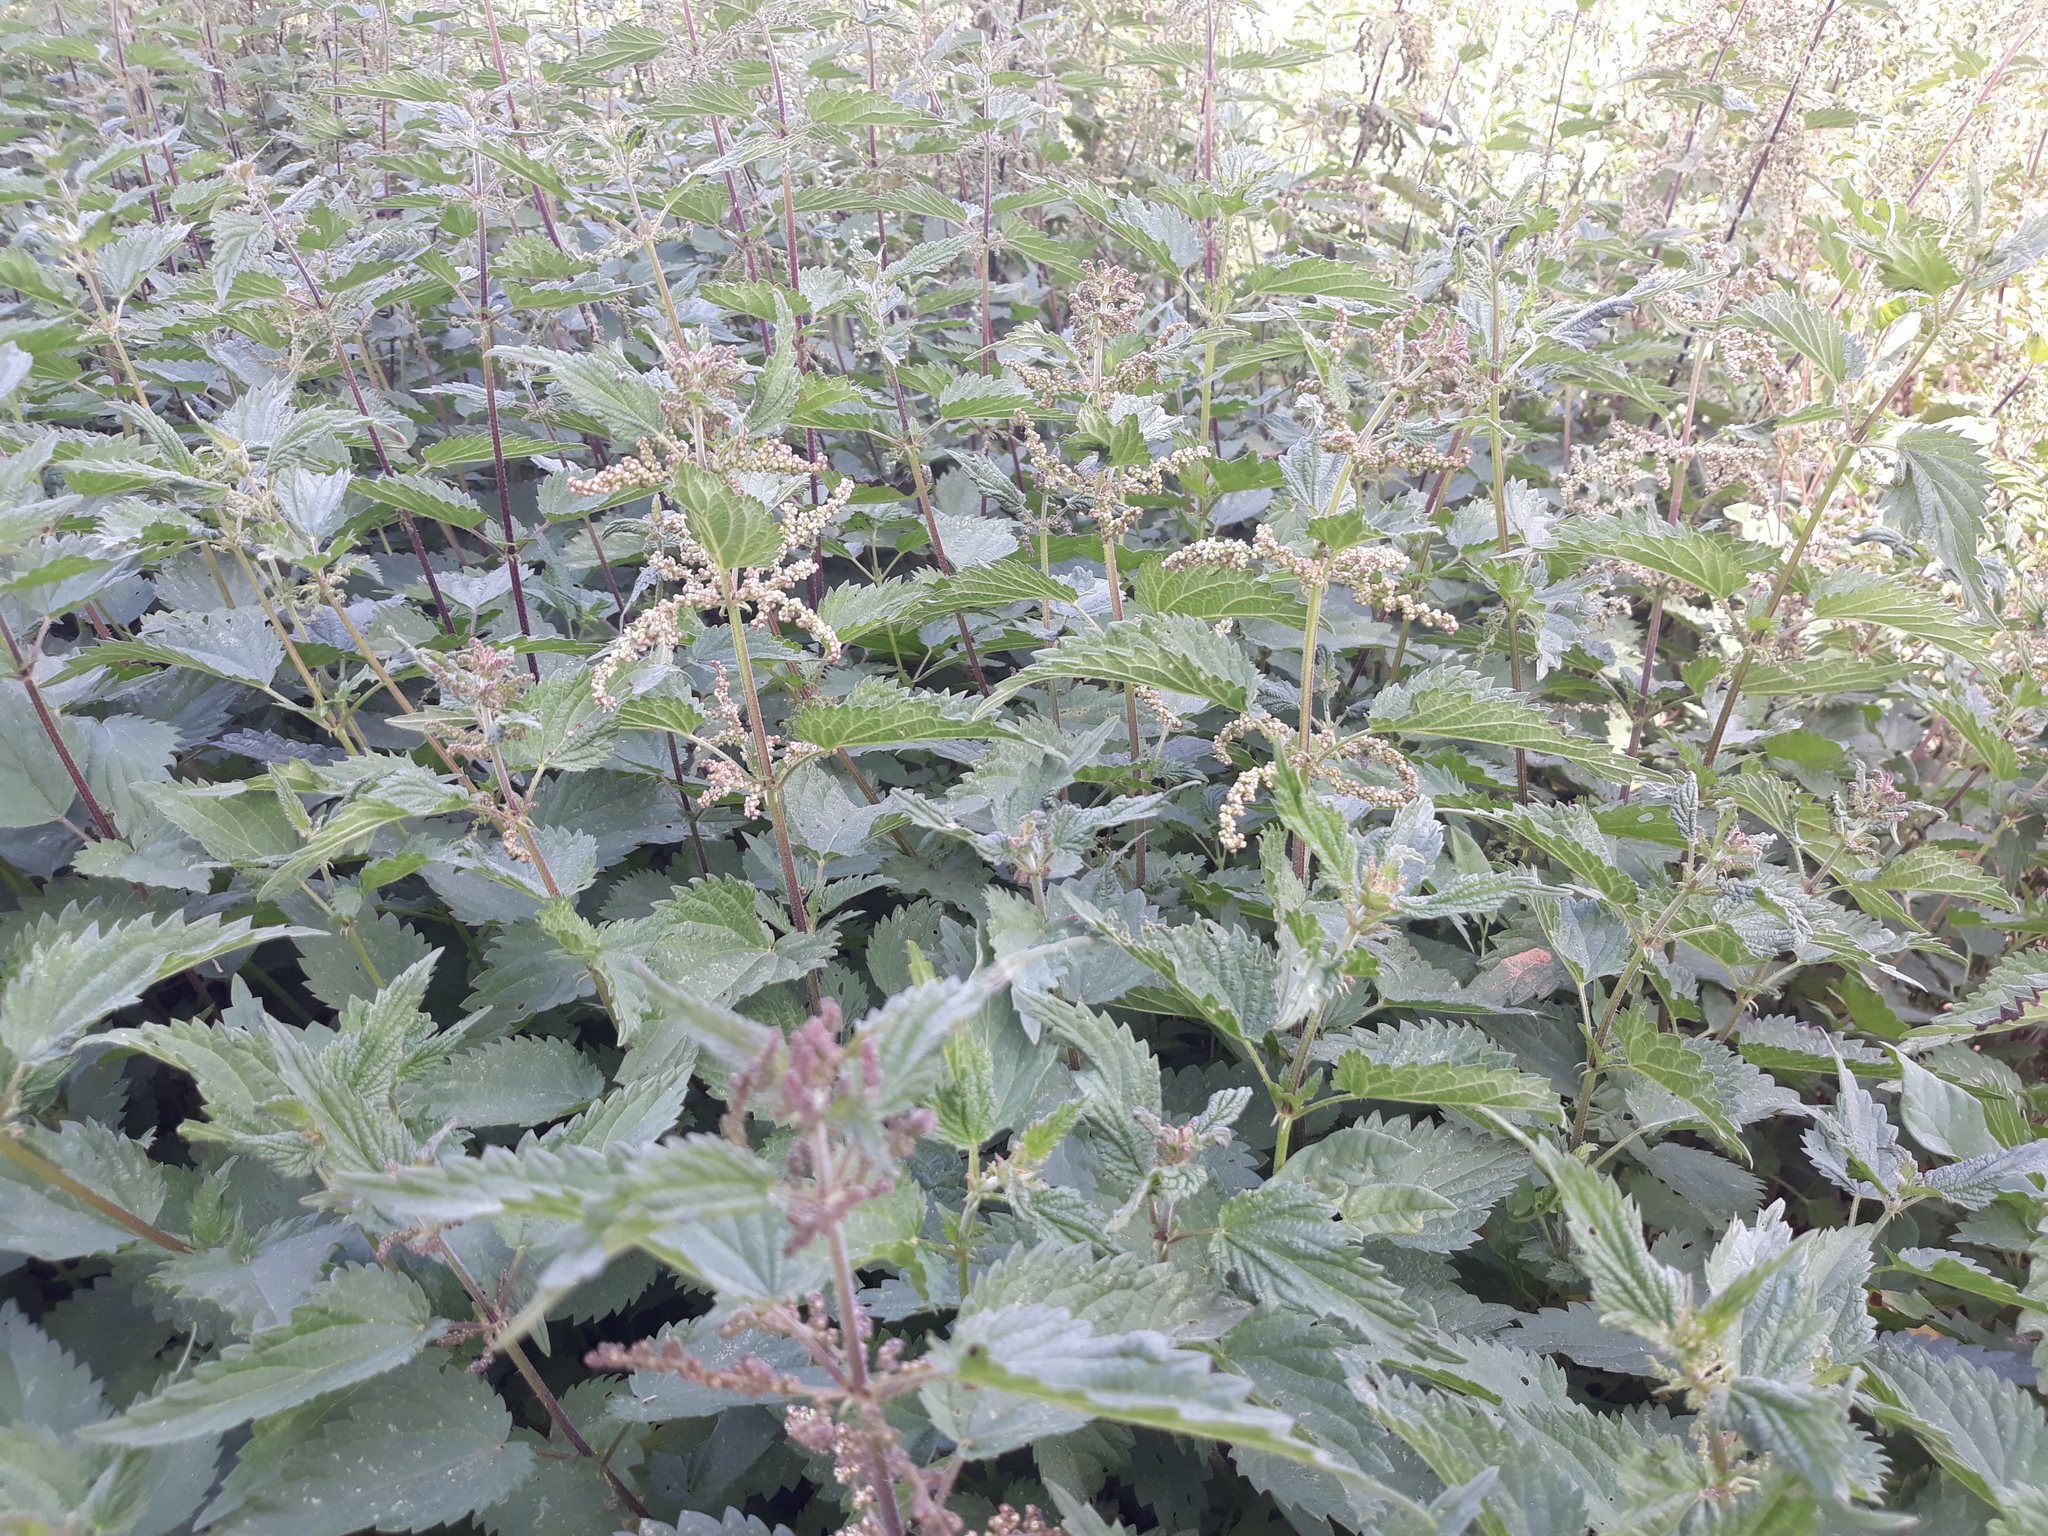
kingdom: Plantae
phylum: Tracheophyta
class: Magnoliopsida
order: Rosales
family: Urticaceae
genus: Urtica
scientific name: Urtica dioica
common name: Common nettle
